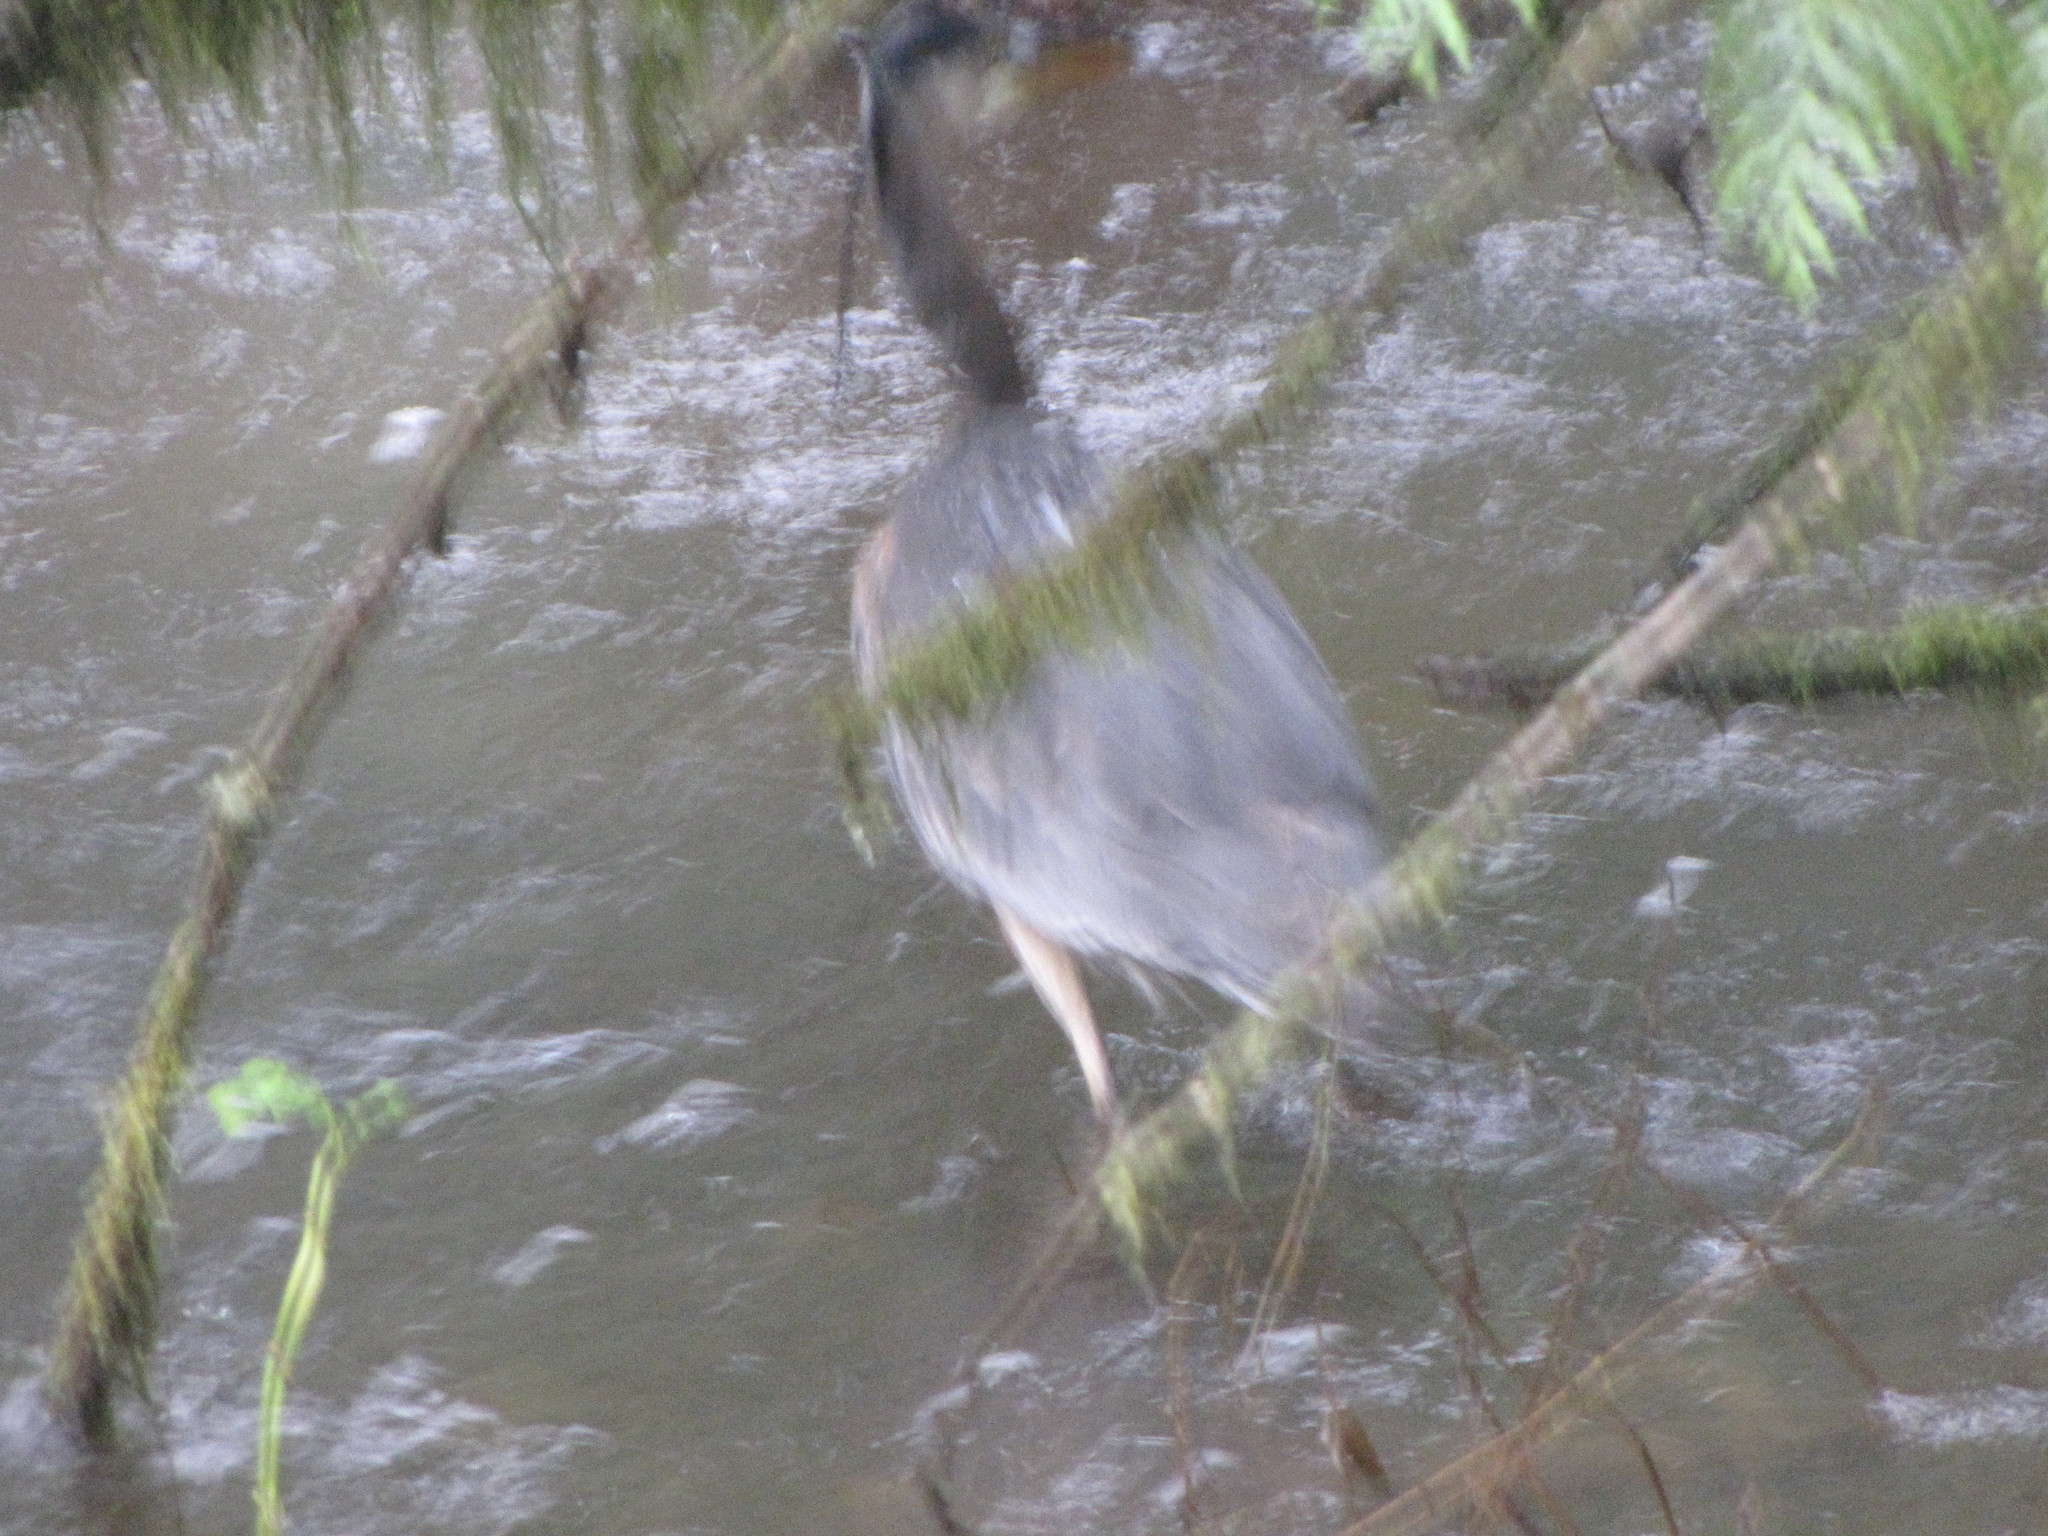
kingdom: Animalia
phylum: Chordata
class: Aves
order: Pelecaniformes
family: Ardeidae
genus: Ardea
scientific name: Ardea herodias
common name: Great blue heron
